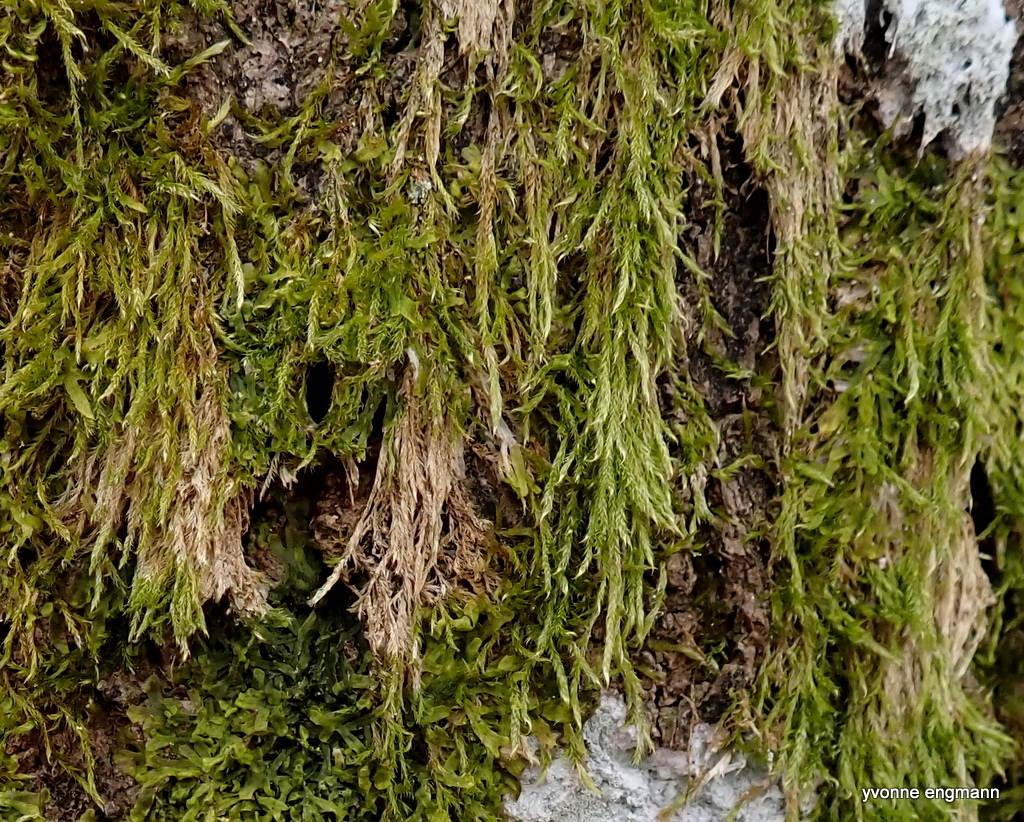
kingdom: Plantae
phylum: Bryophyta
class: Bryopsida
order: Hypnales
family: Hypnaceae
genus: Hypnum
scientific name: Hypnum cupressiforme
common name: Cypress-leaved plait-moss
